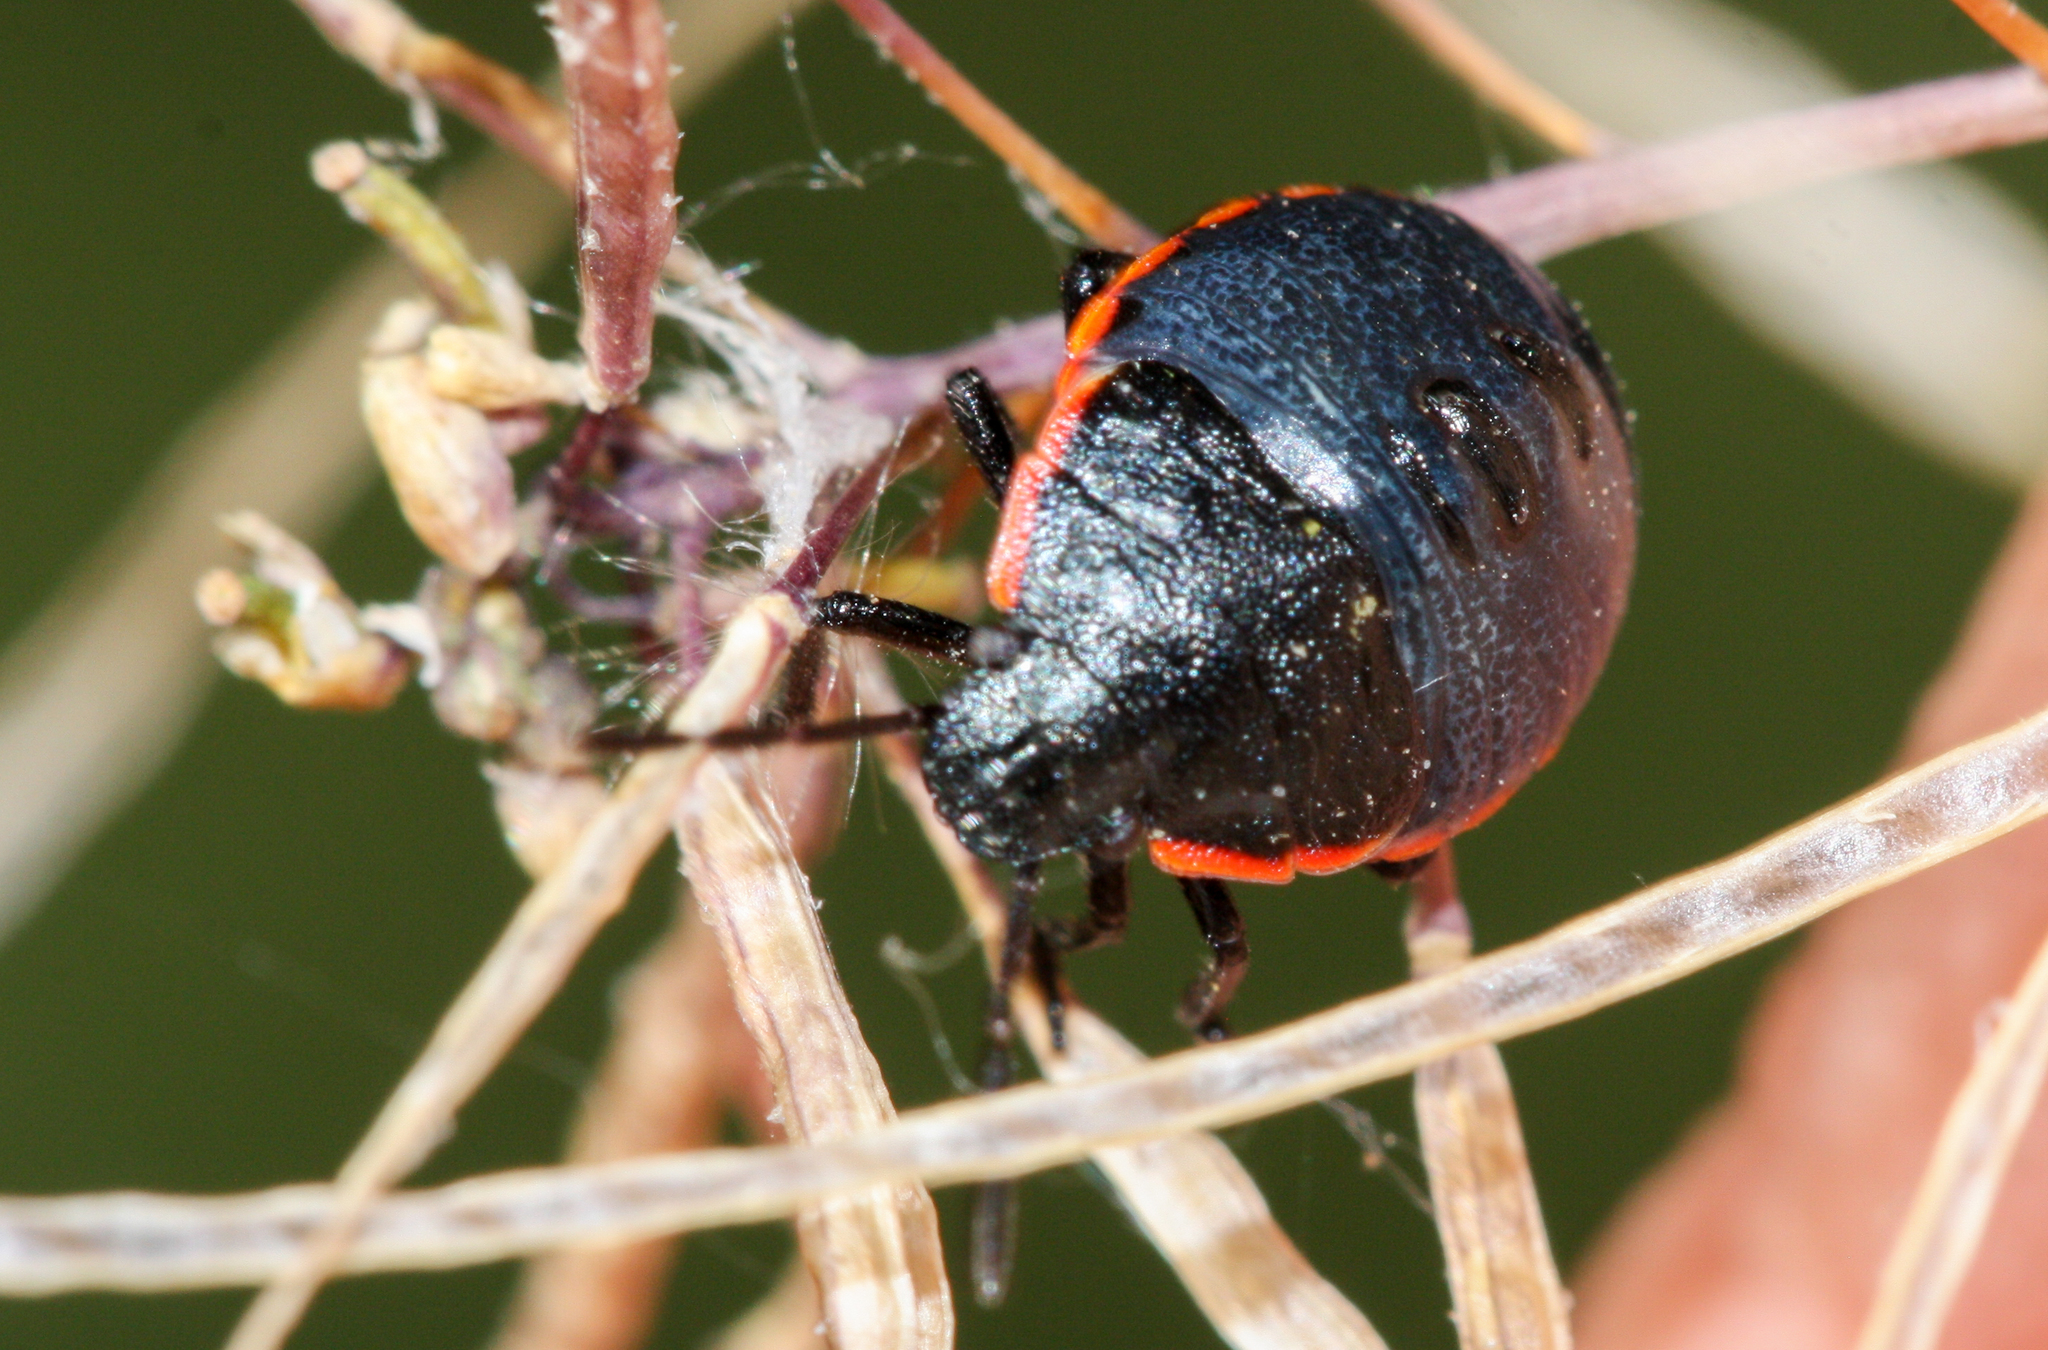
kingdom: Animalia
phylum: Arthropoda
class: Insecta
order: Hemiptera
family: Pentatomidae
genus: Chlorochroa
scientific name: Chlorochroa ligata
